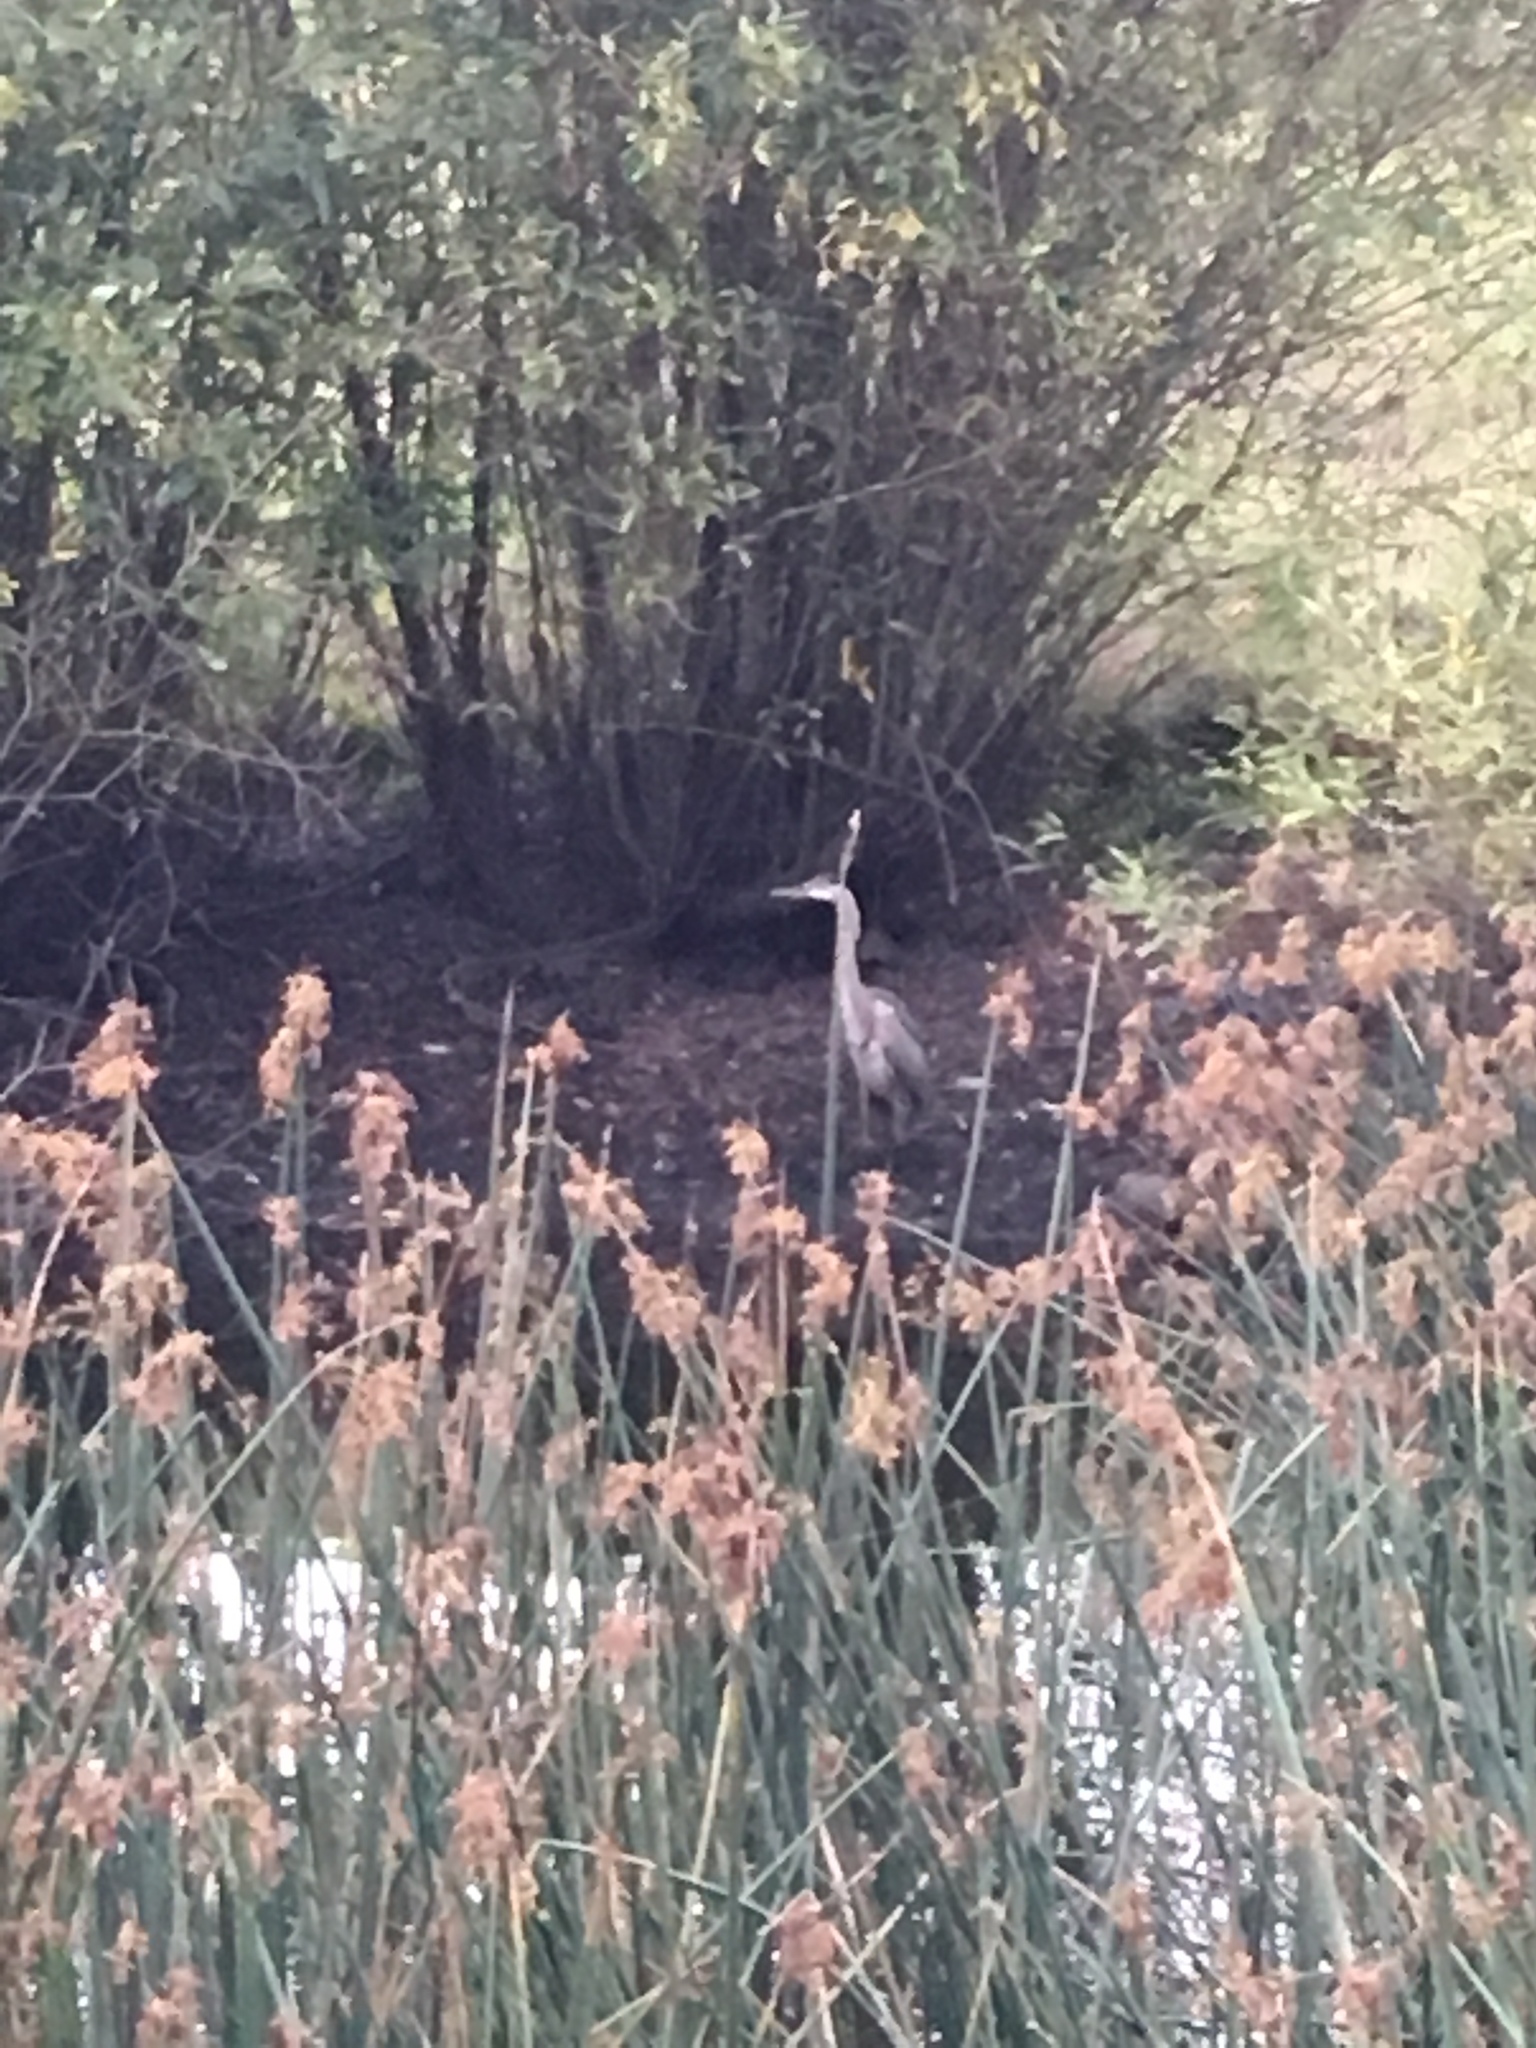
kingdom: Animalia
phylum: Chordata
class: Aves
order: Pelecaniformes
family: Ardeidae
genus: Ardea
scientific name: Ardea herodias
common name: Great blue heron
